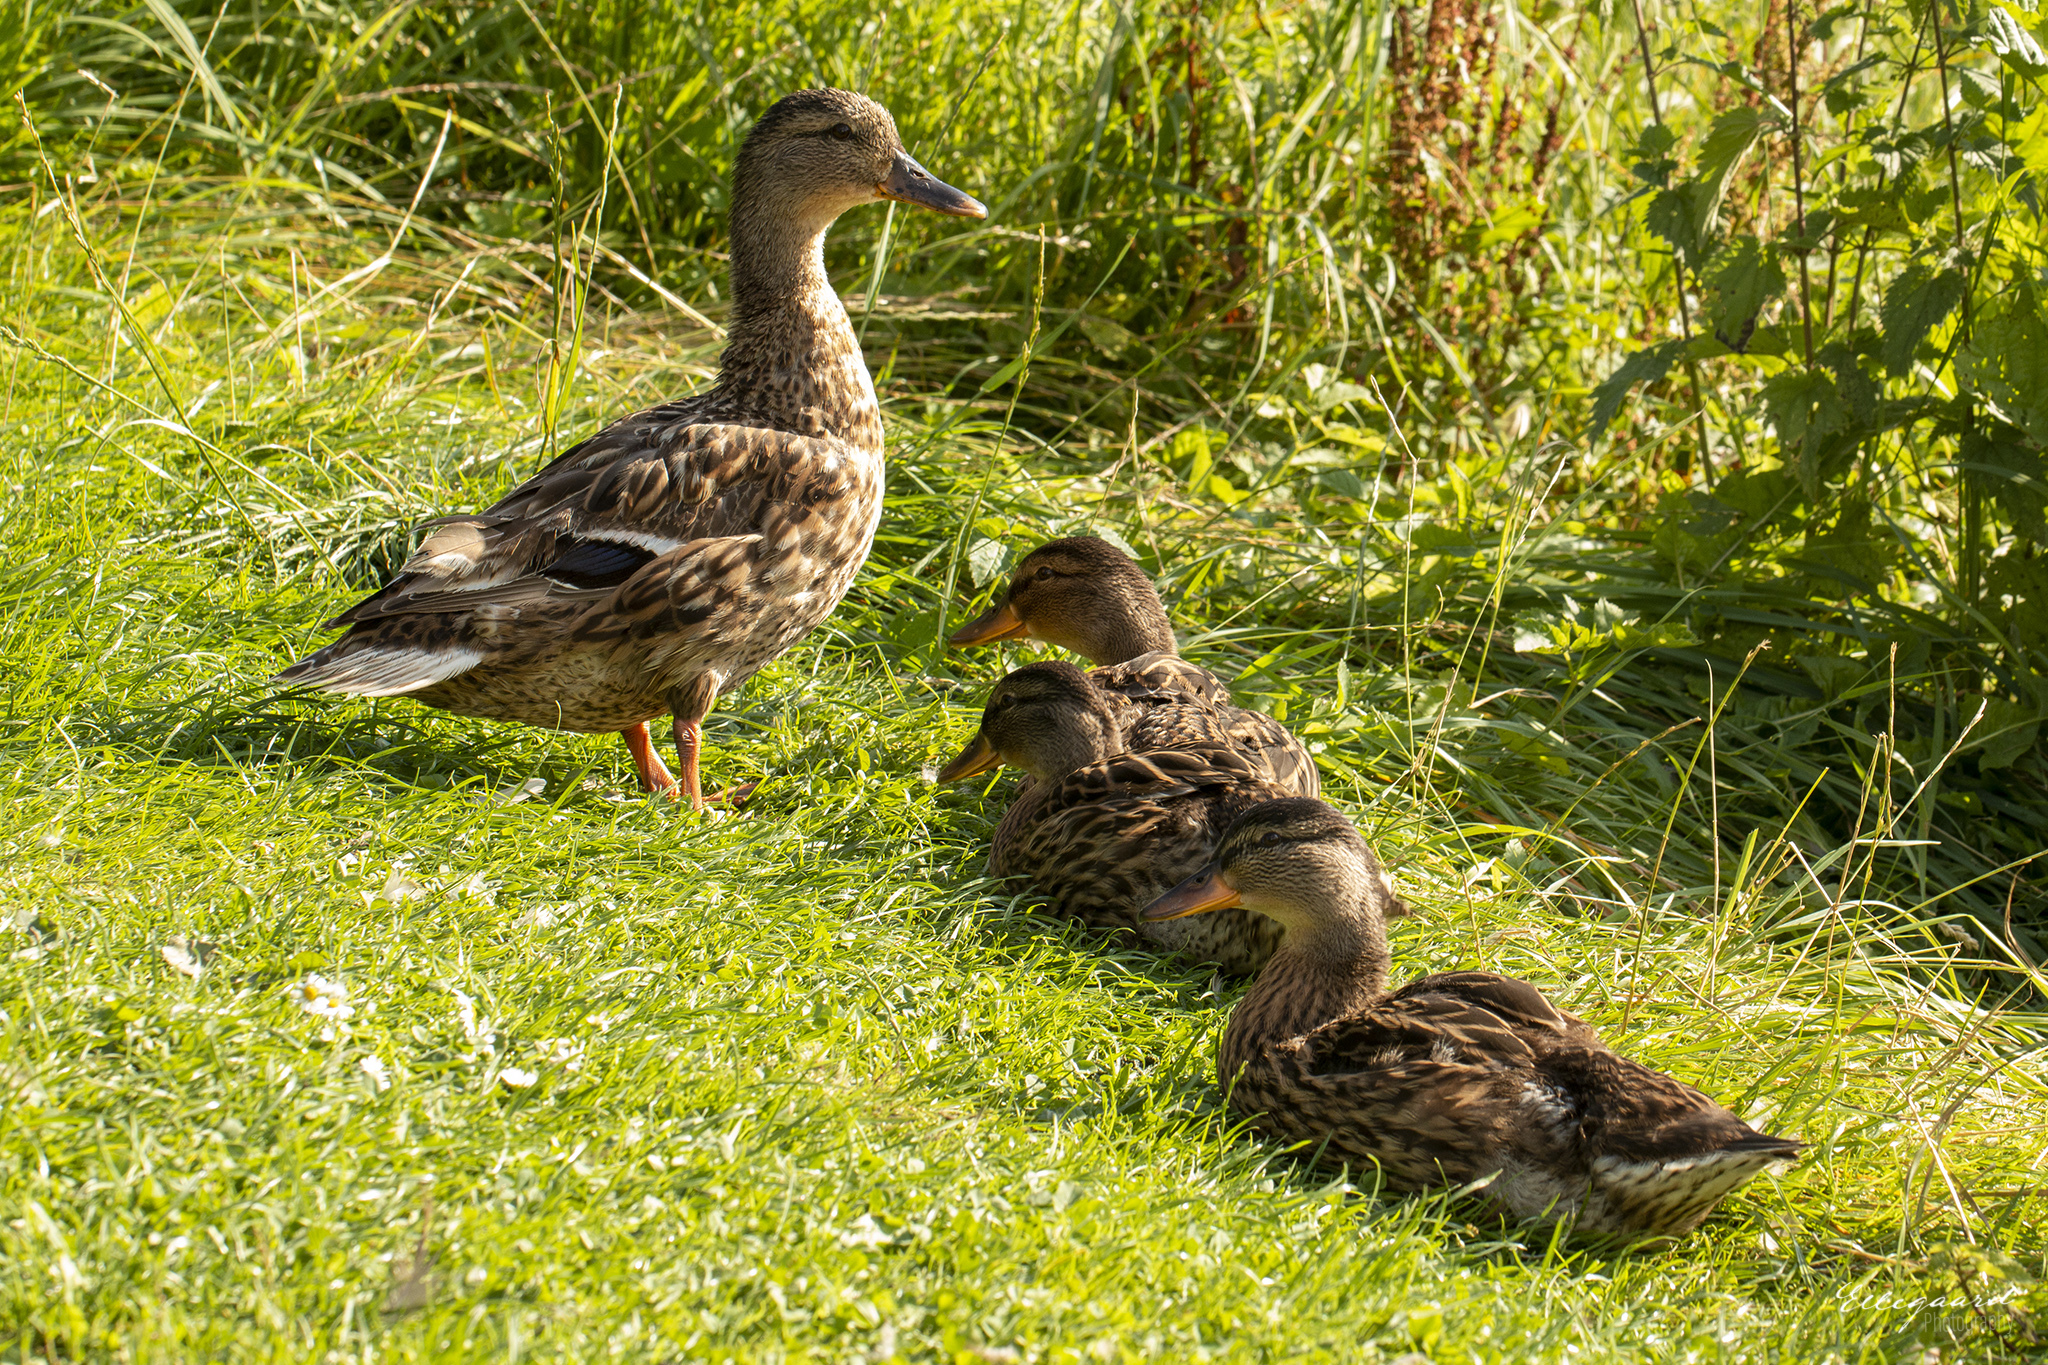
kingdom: Animalia
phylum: Chordata
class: Aves
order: Anseriformes
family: Anatidae
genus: Anas
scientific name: Anas platyrhynchos
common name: Mallard
